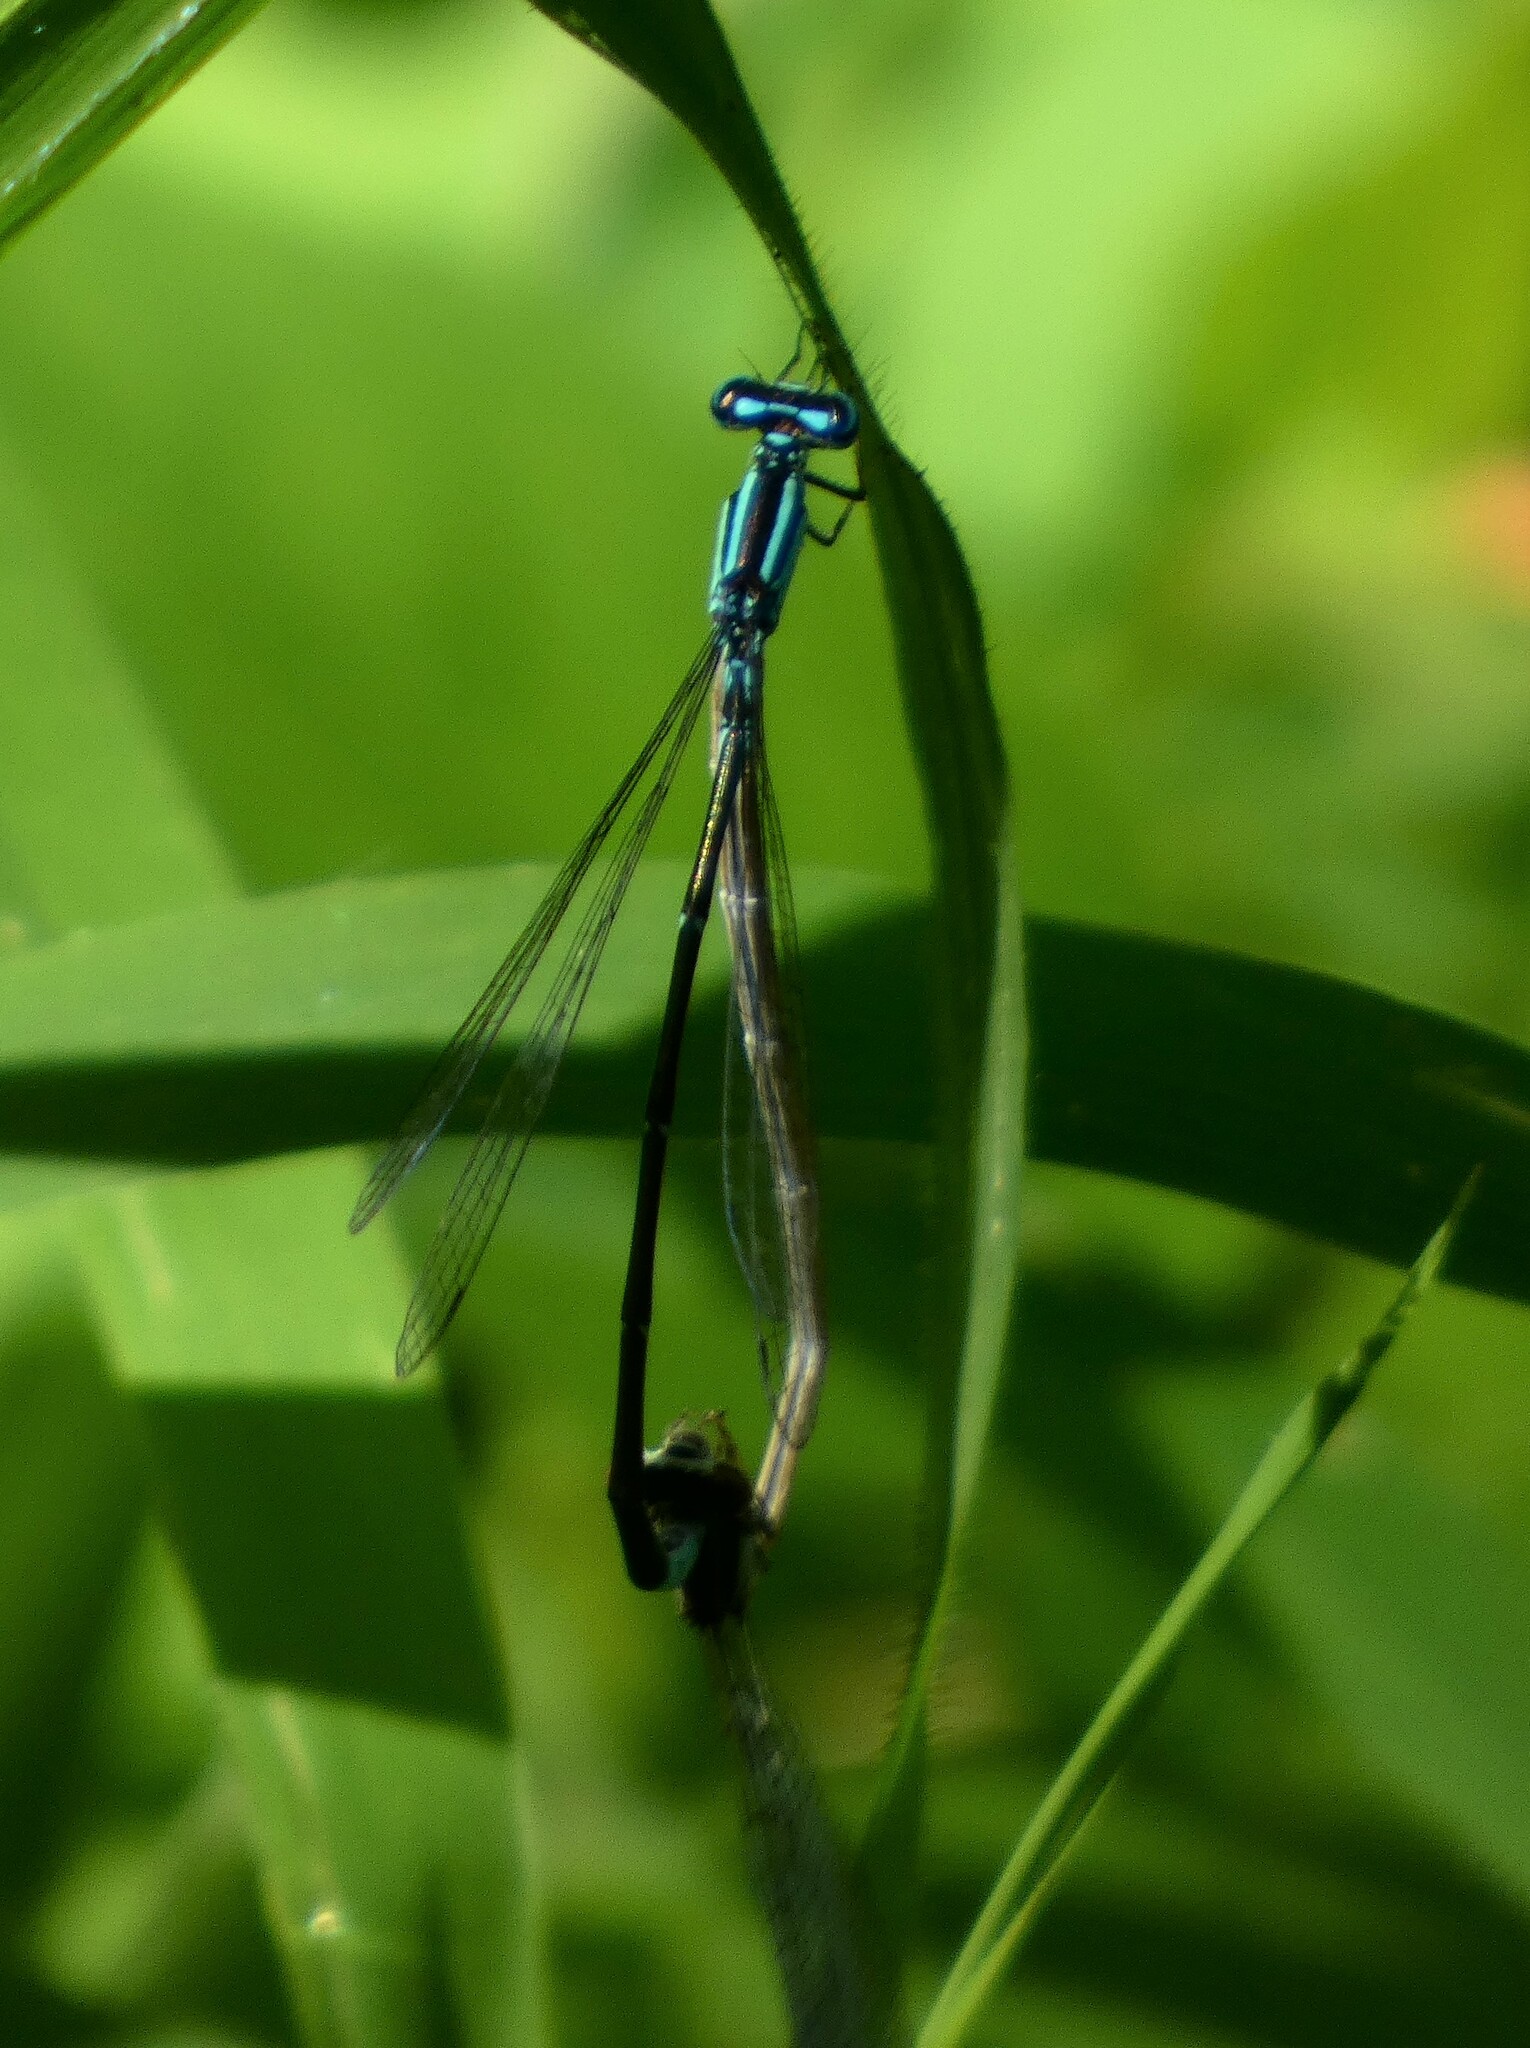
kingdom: Animalia
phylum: Arthropoda
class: Insecta
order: Odonata
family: Coenagrionidae
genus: Enallagma
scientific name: Enallagma divagans
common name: Turquoise bluet
